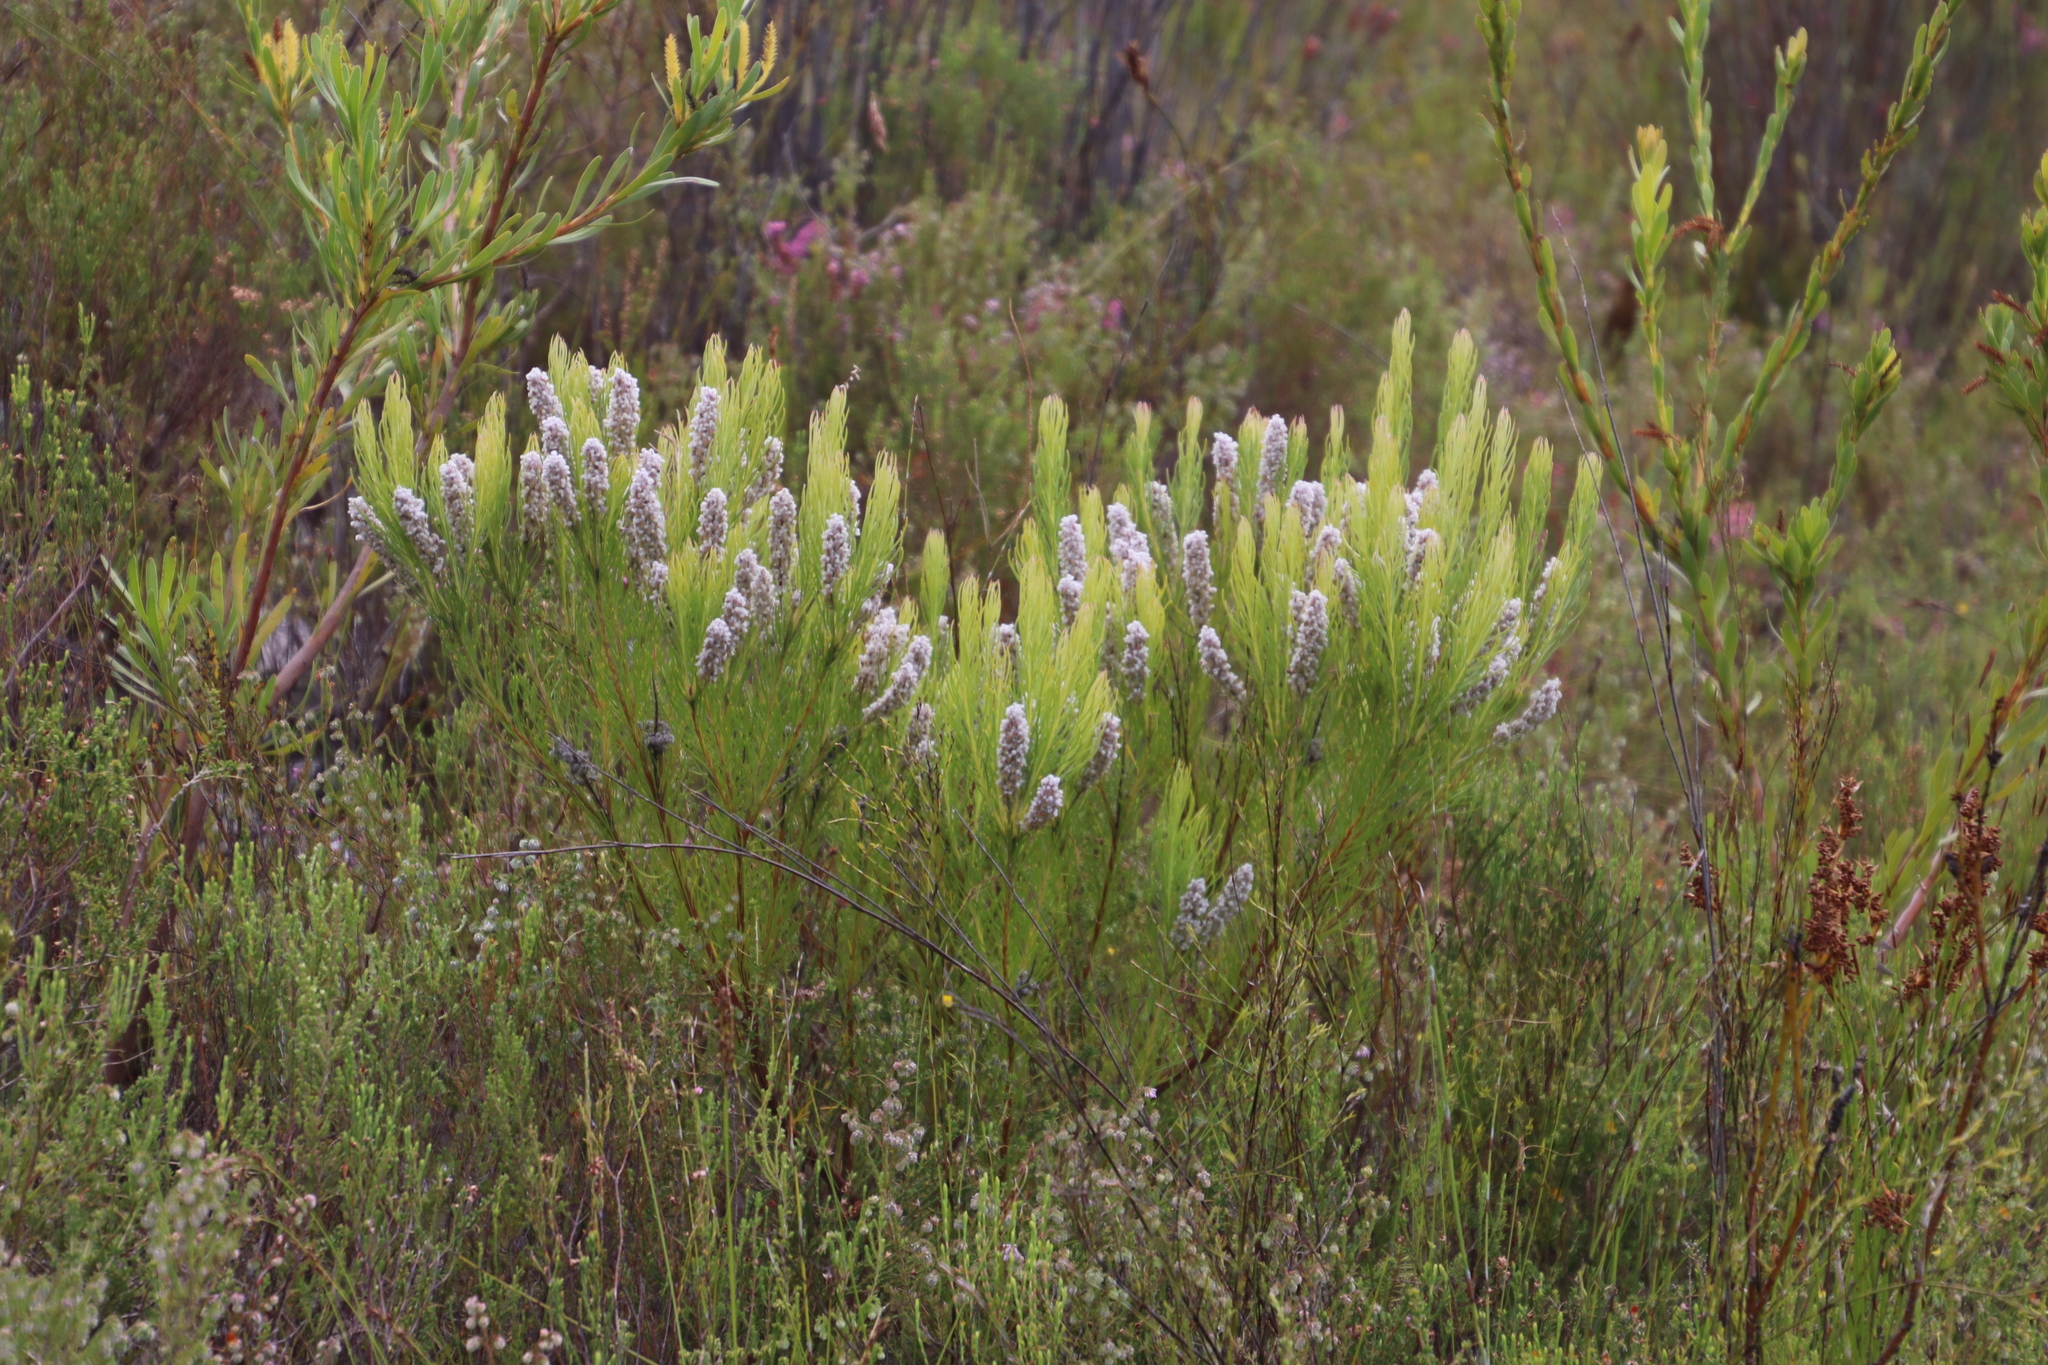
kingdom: Plantae
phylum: Tracheophyta
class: Magnoliopsida
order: Proteales
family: Proteaceae
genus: Spatalla
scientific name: Spatalla curvifolia
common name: White-stalked spoon
